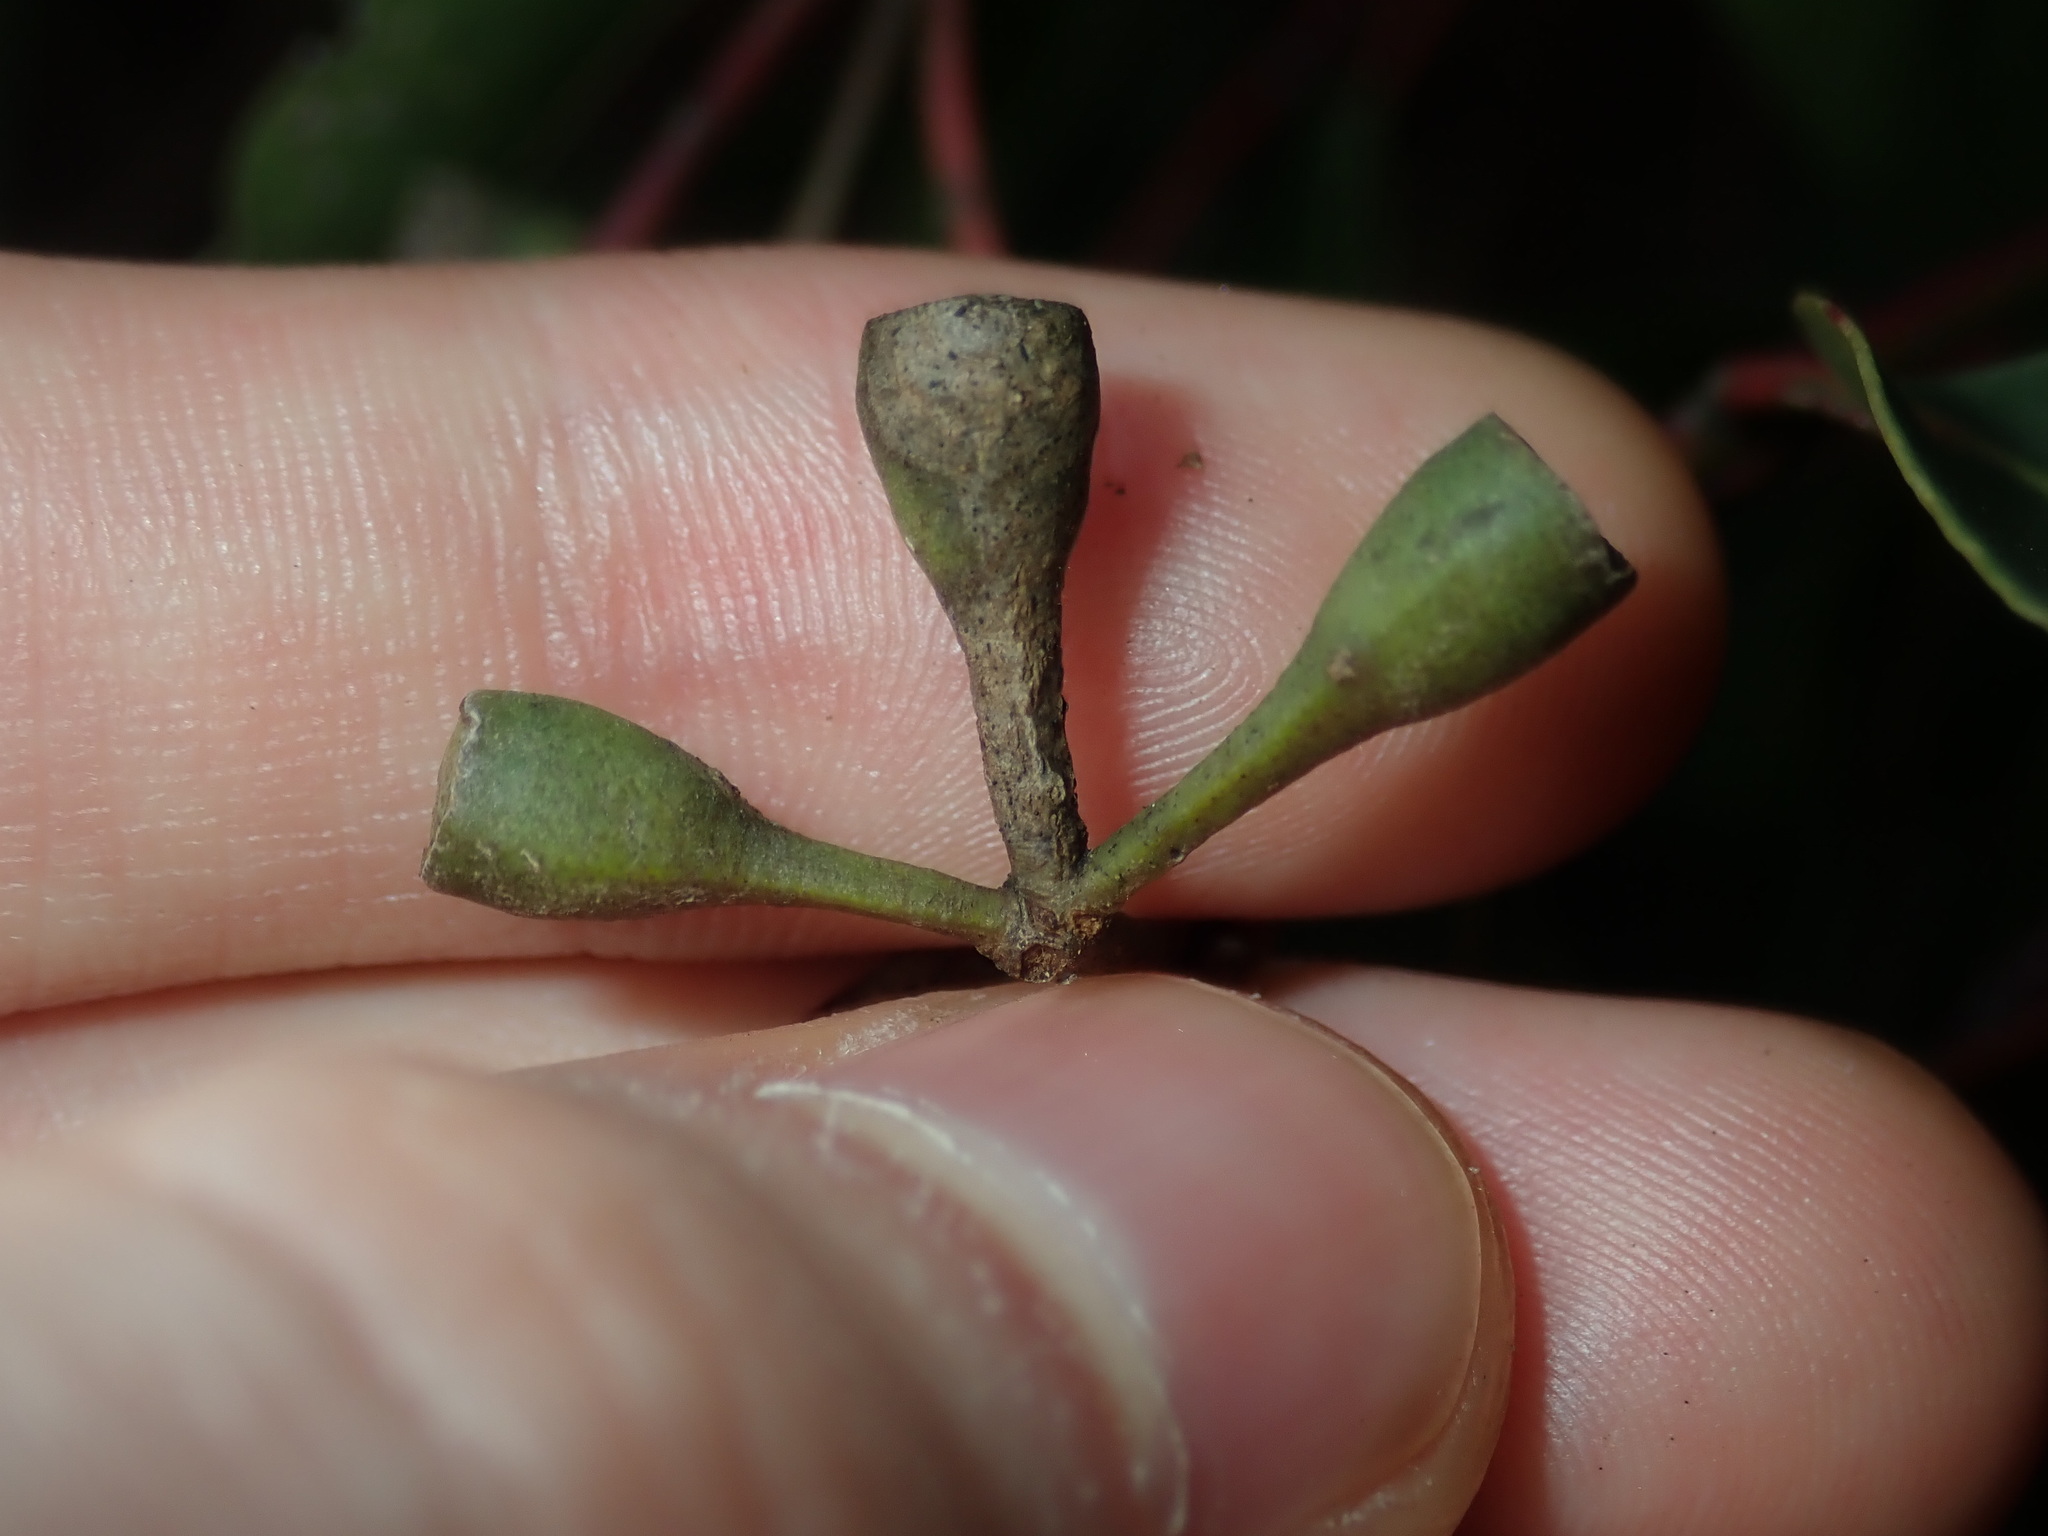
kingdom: Plantae
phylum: Tracheophyta
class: Magnoliopsida
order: Myrtales
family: Myrtaceae
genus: Eucalyptus
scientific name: Eucalyptus microcorys
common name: Tallowwood
